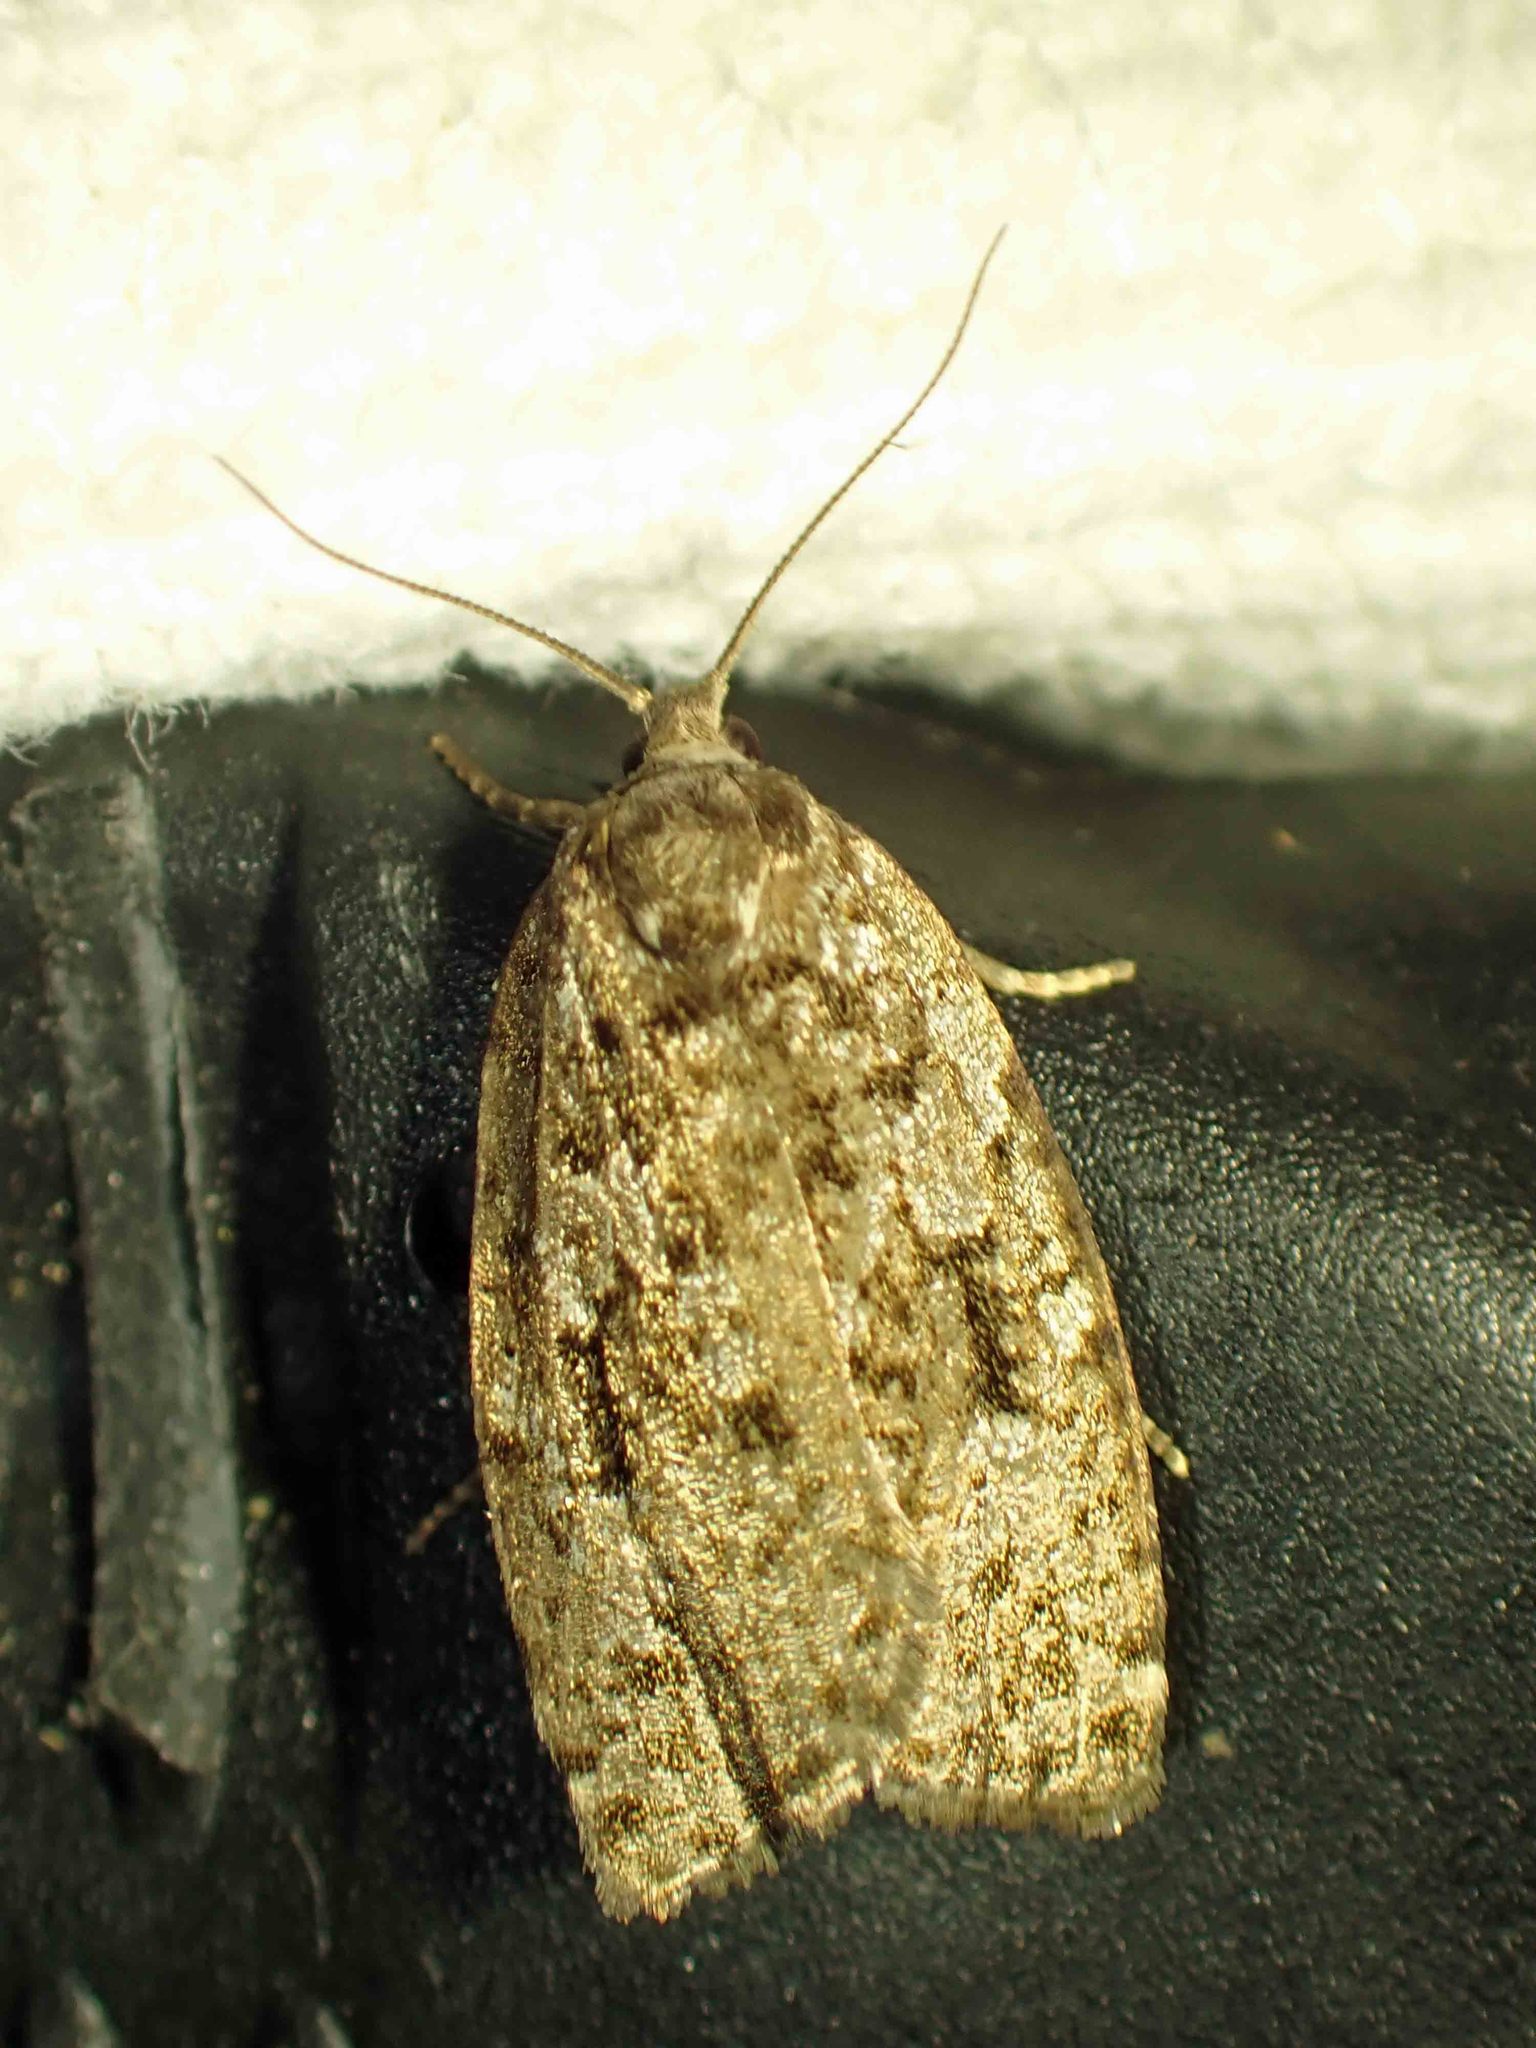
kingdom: Animalia
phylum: Arthropoda
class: Insecta
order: Lepidoptera
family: Tortricidae
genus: Choristoneura
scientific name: Choristoneura fumiferana
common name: Spruce budworm
